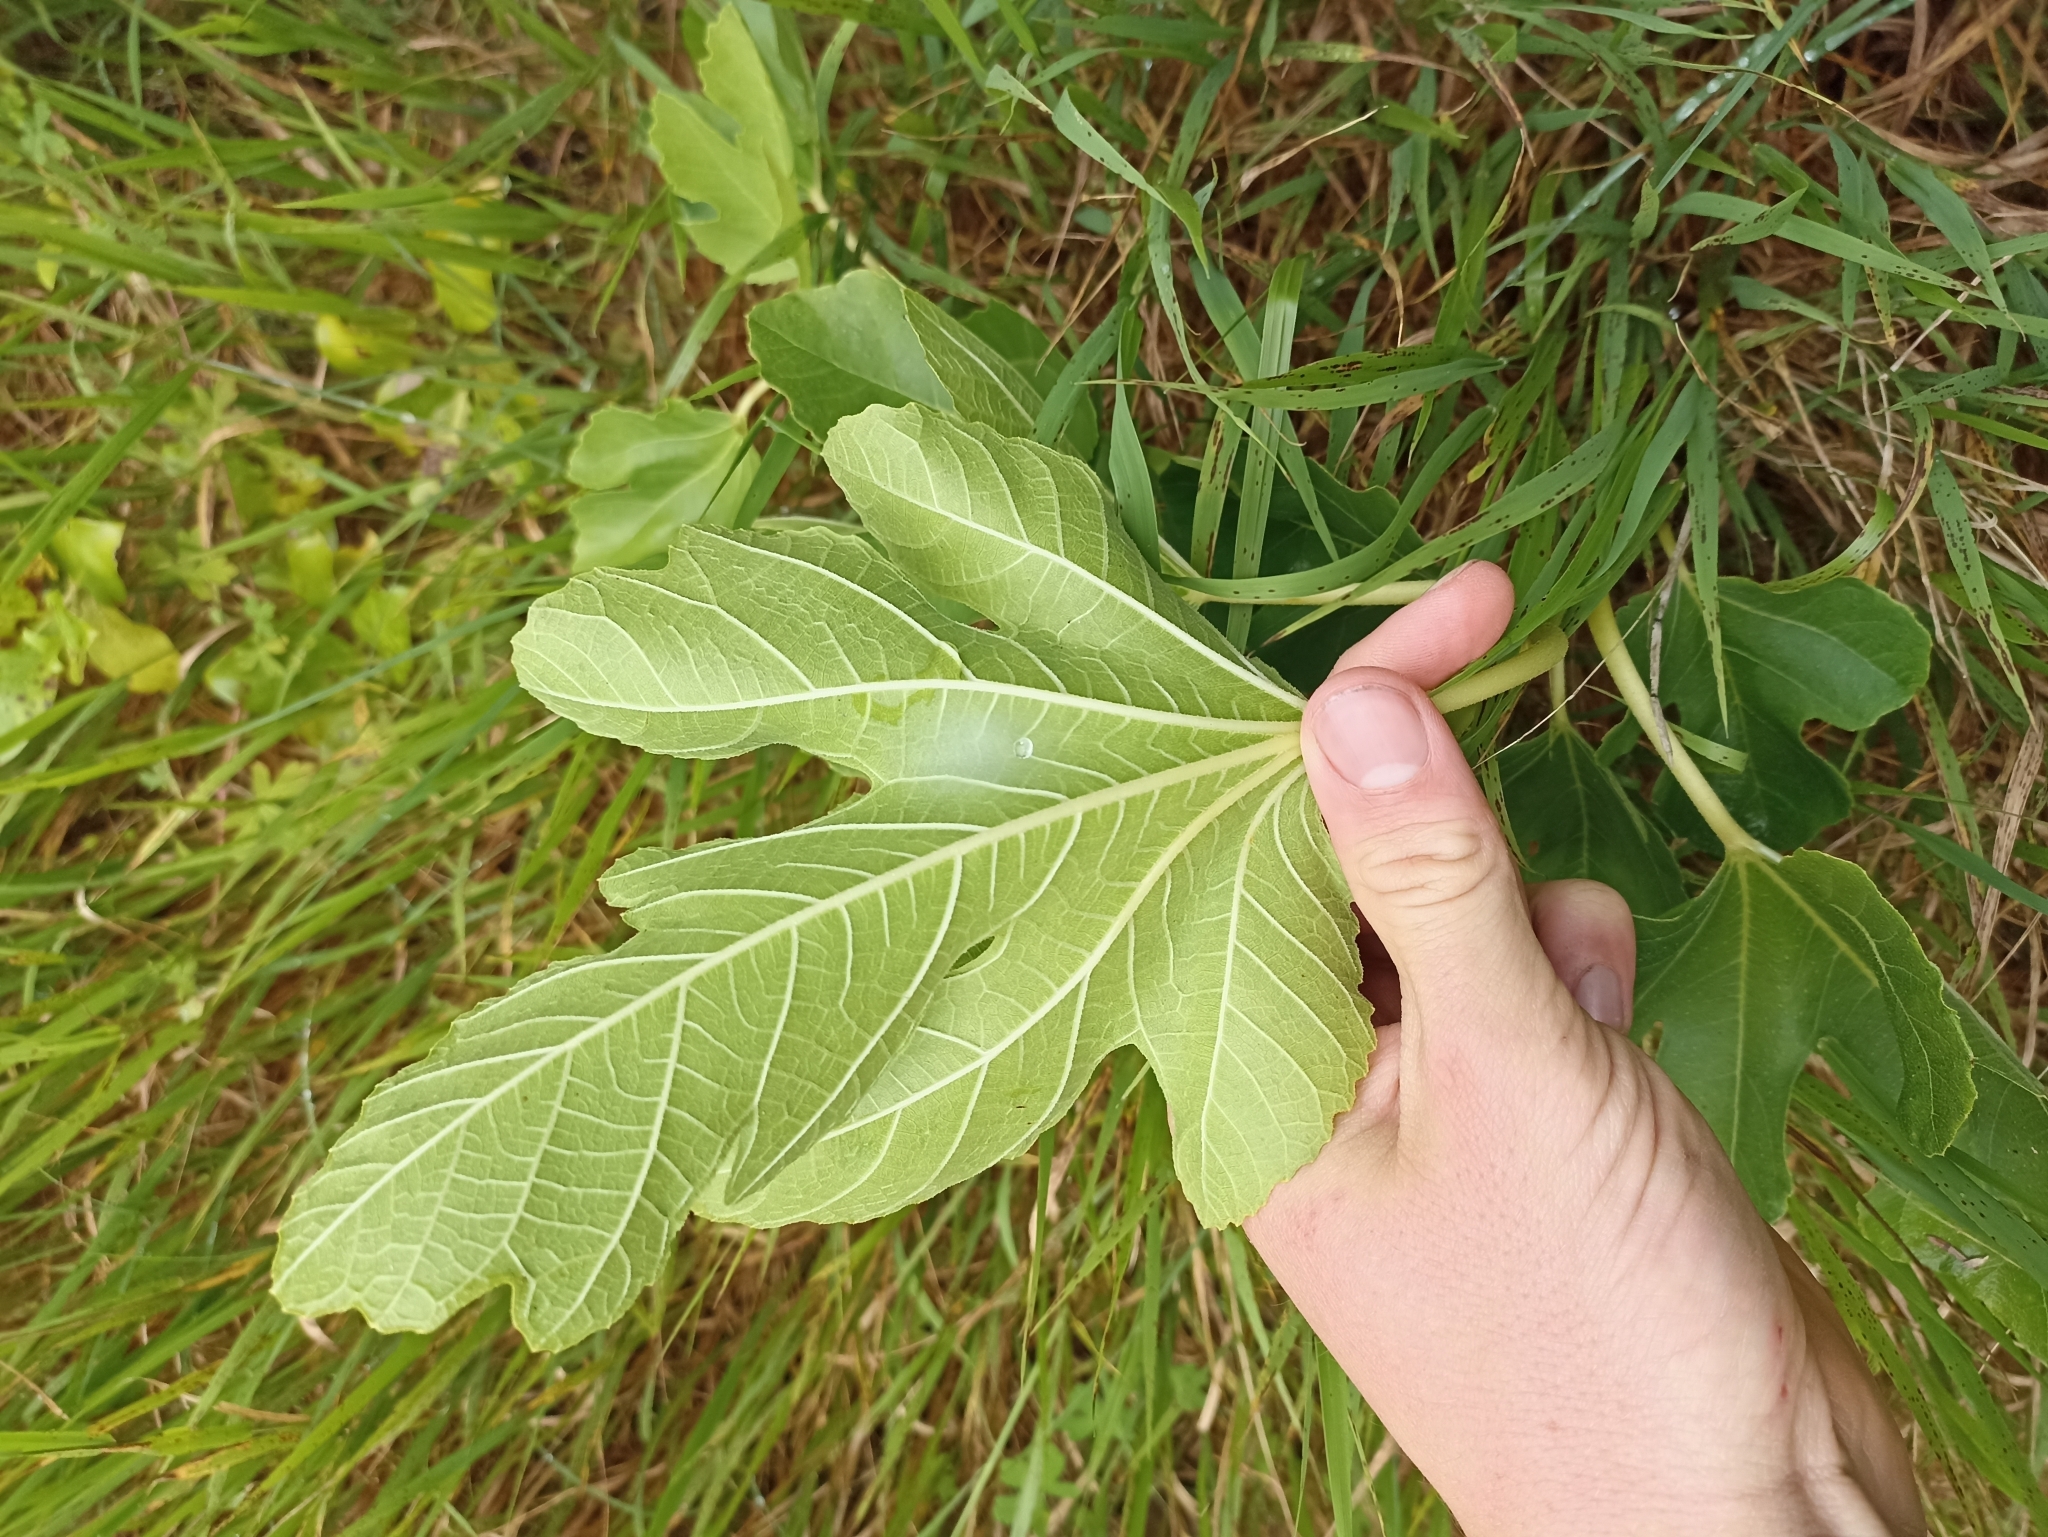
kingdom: Plantae
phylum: Tracheophyta
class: Magnoliopsida
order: Rosales
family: Moraceae
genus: Ficus
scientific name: Ficus carica
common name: Fig
